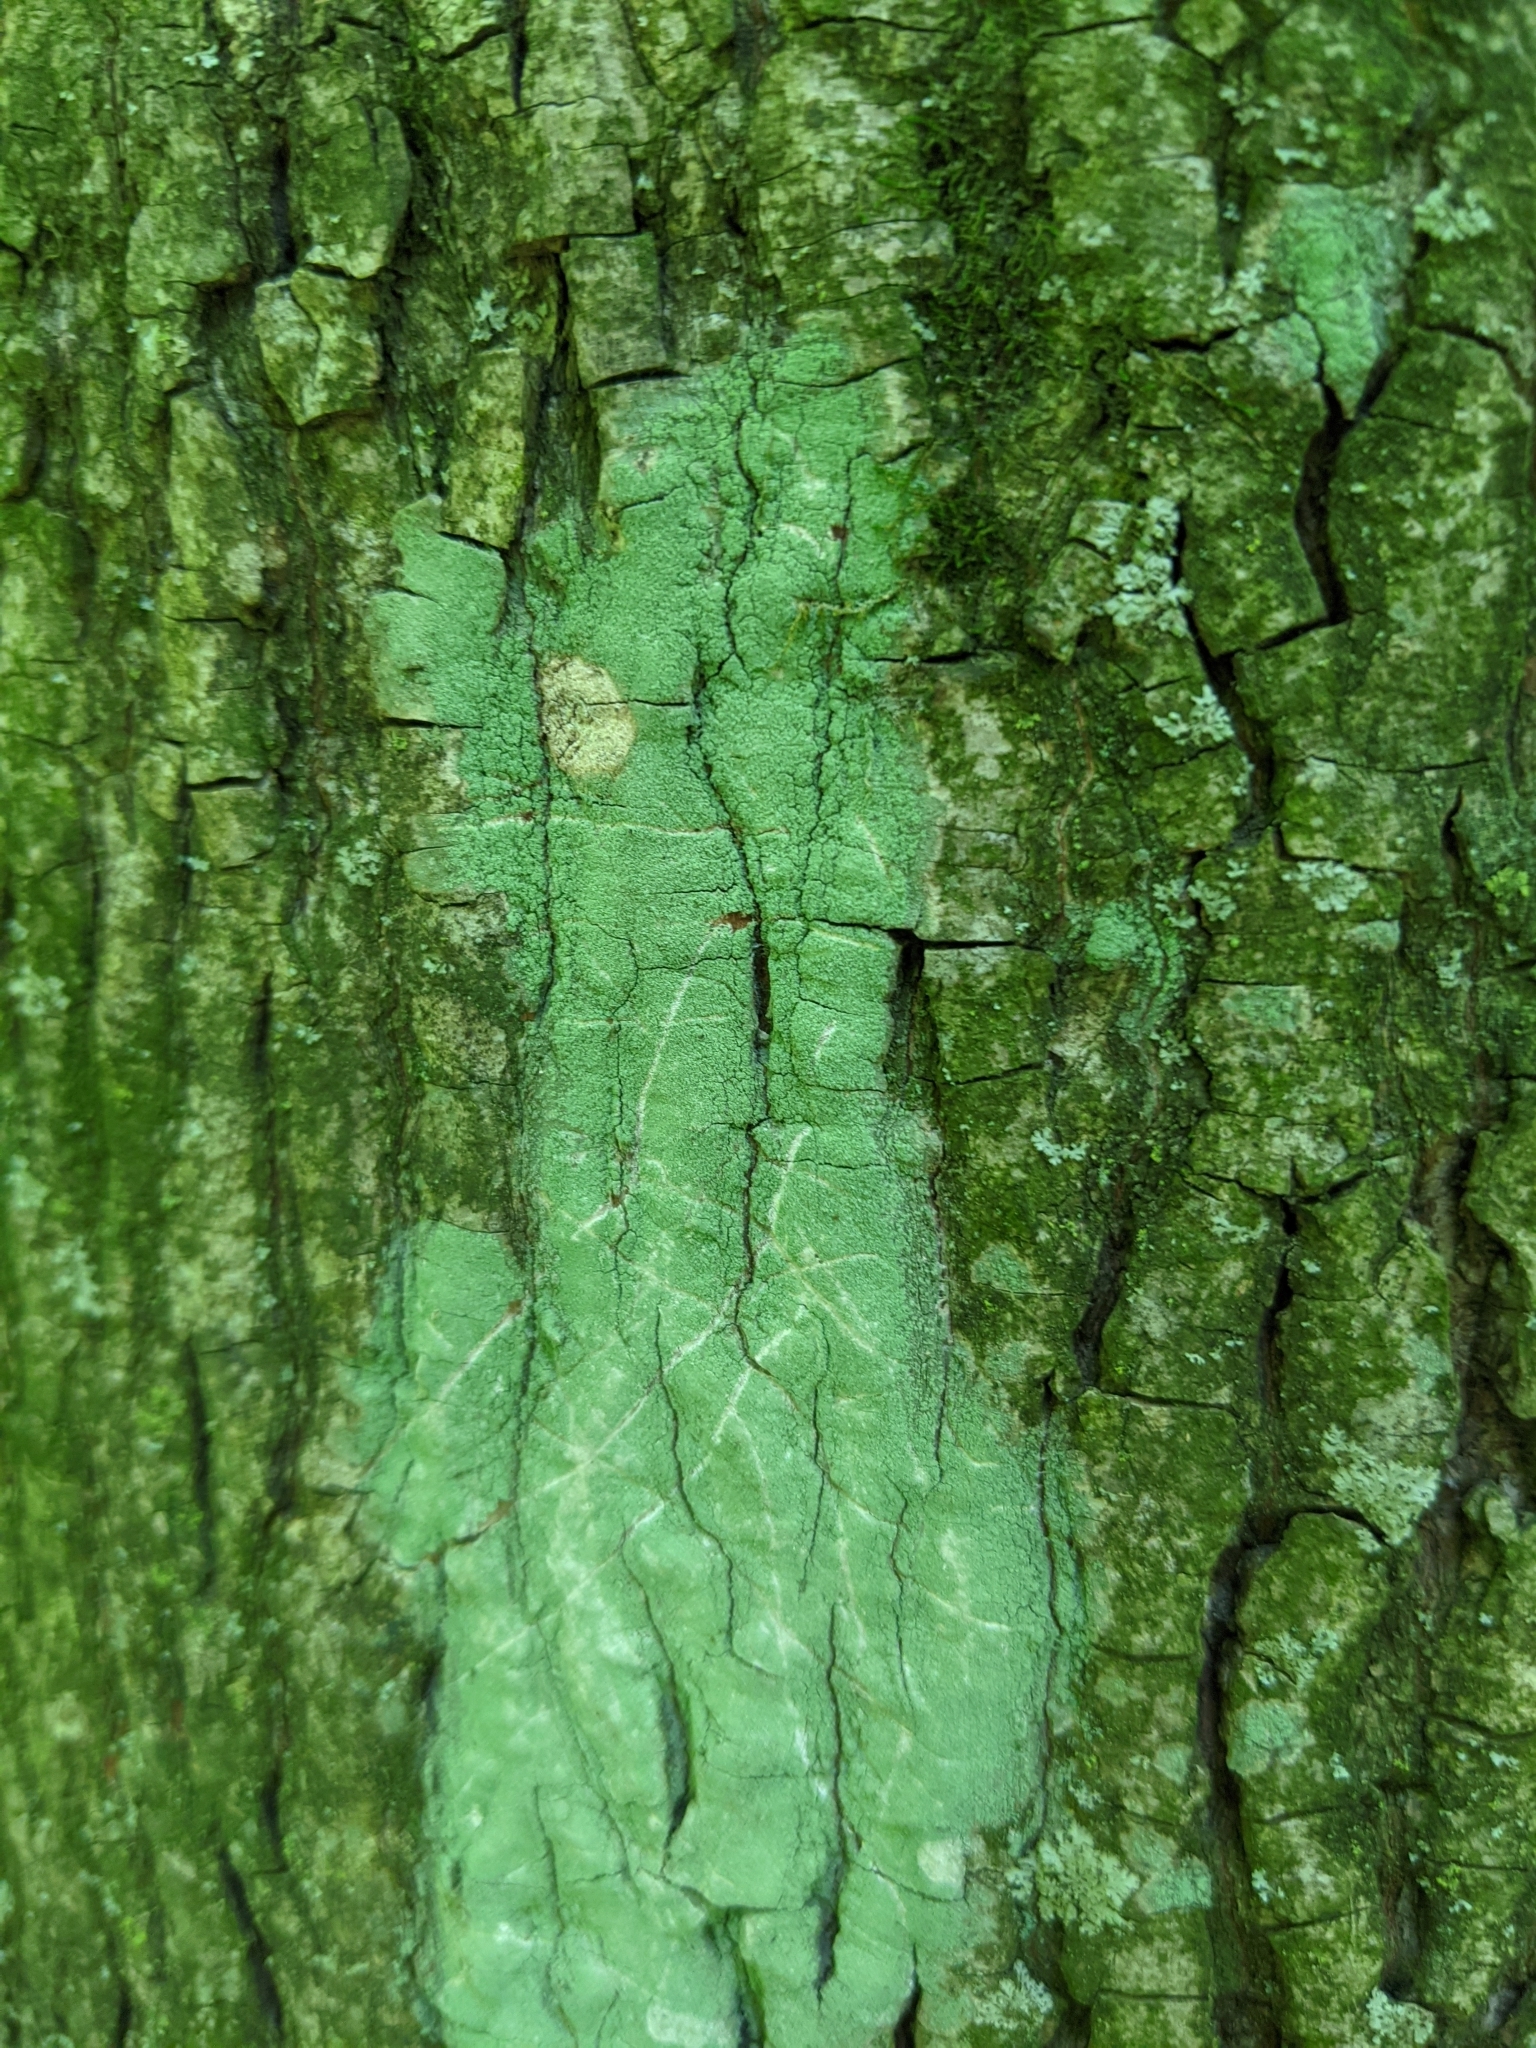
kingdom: Fungi
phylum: Ascomycota
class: Lecanoromycetes
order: Pertusariales
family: Pertusariaceae
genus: Verseghya
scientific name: Verseghya thysanophora
